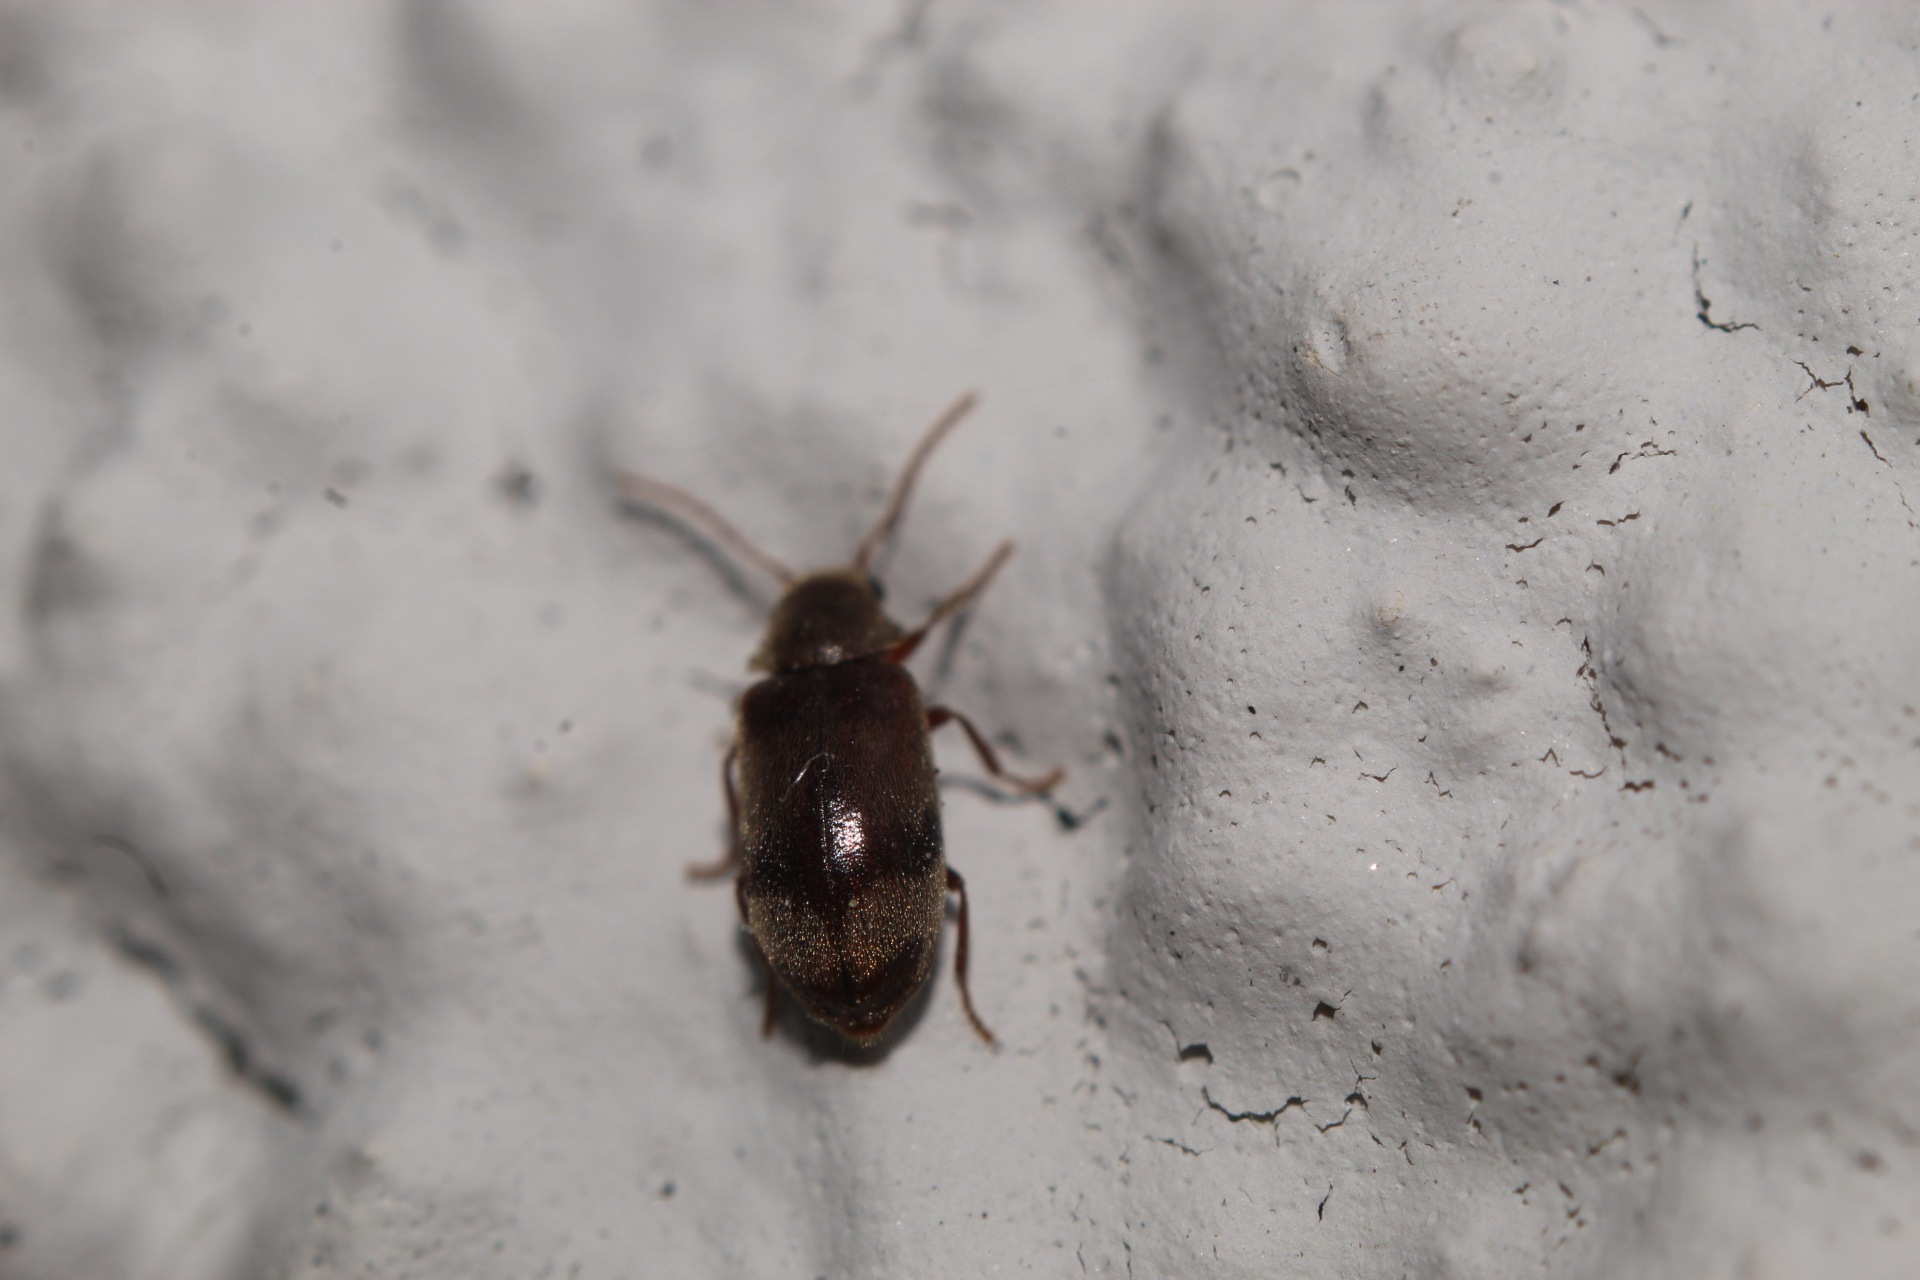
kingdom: Animalia
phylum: Arthropoda
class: Insecta
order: Coleoptera
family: Ptinidae
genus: Ochina
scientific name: Ochina ptinoides
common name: Ivy boring beetle
